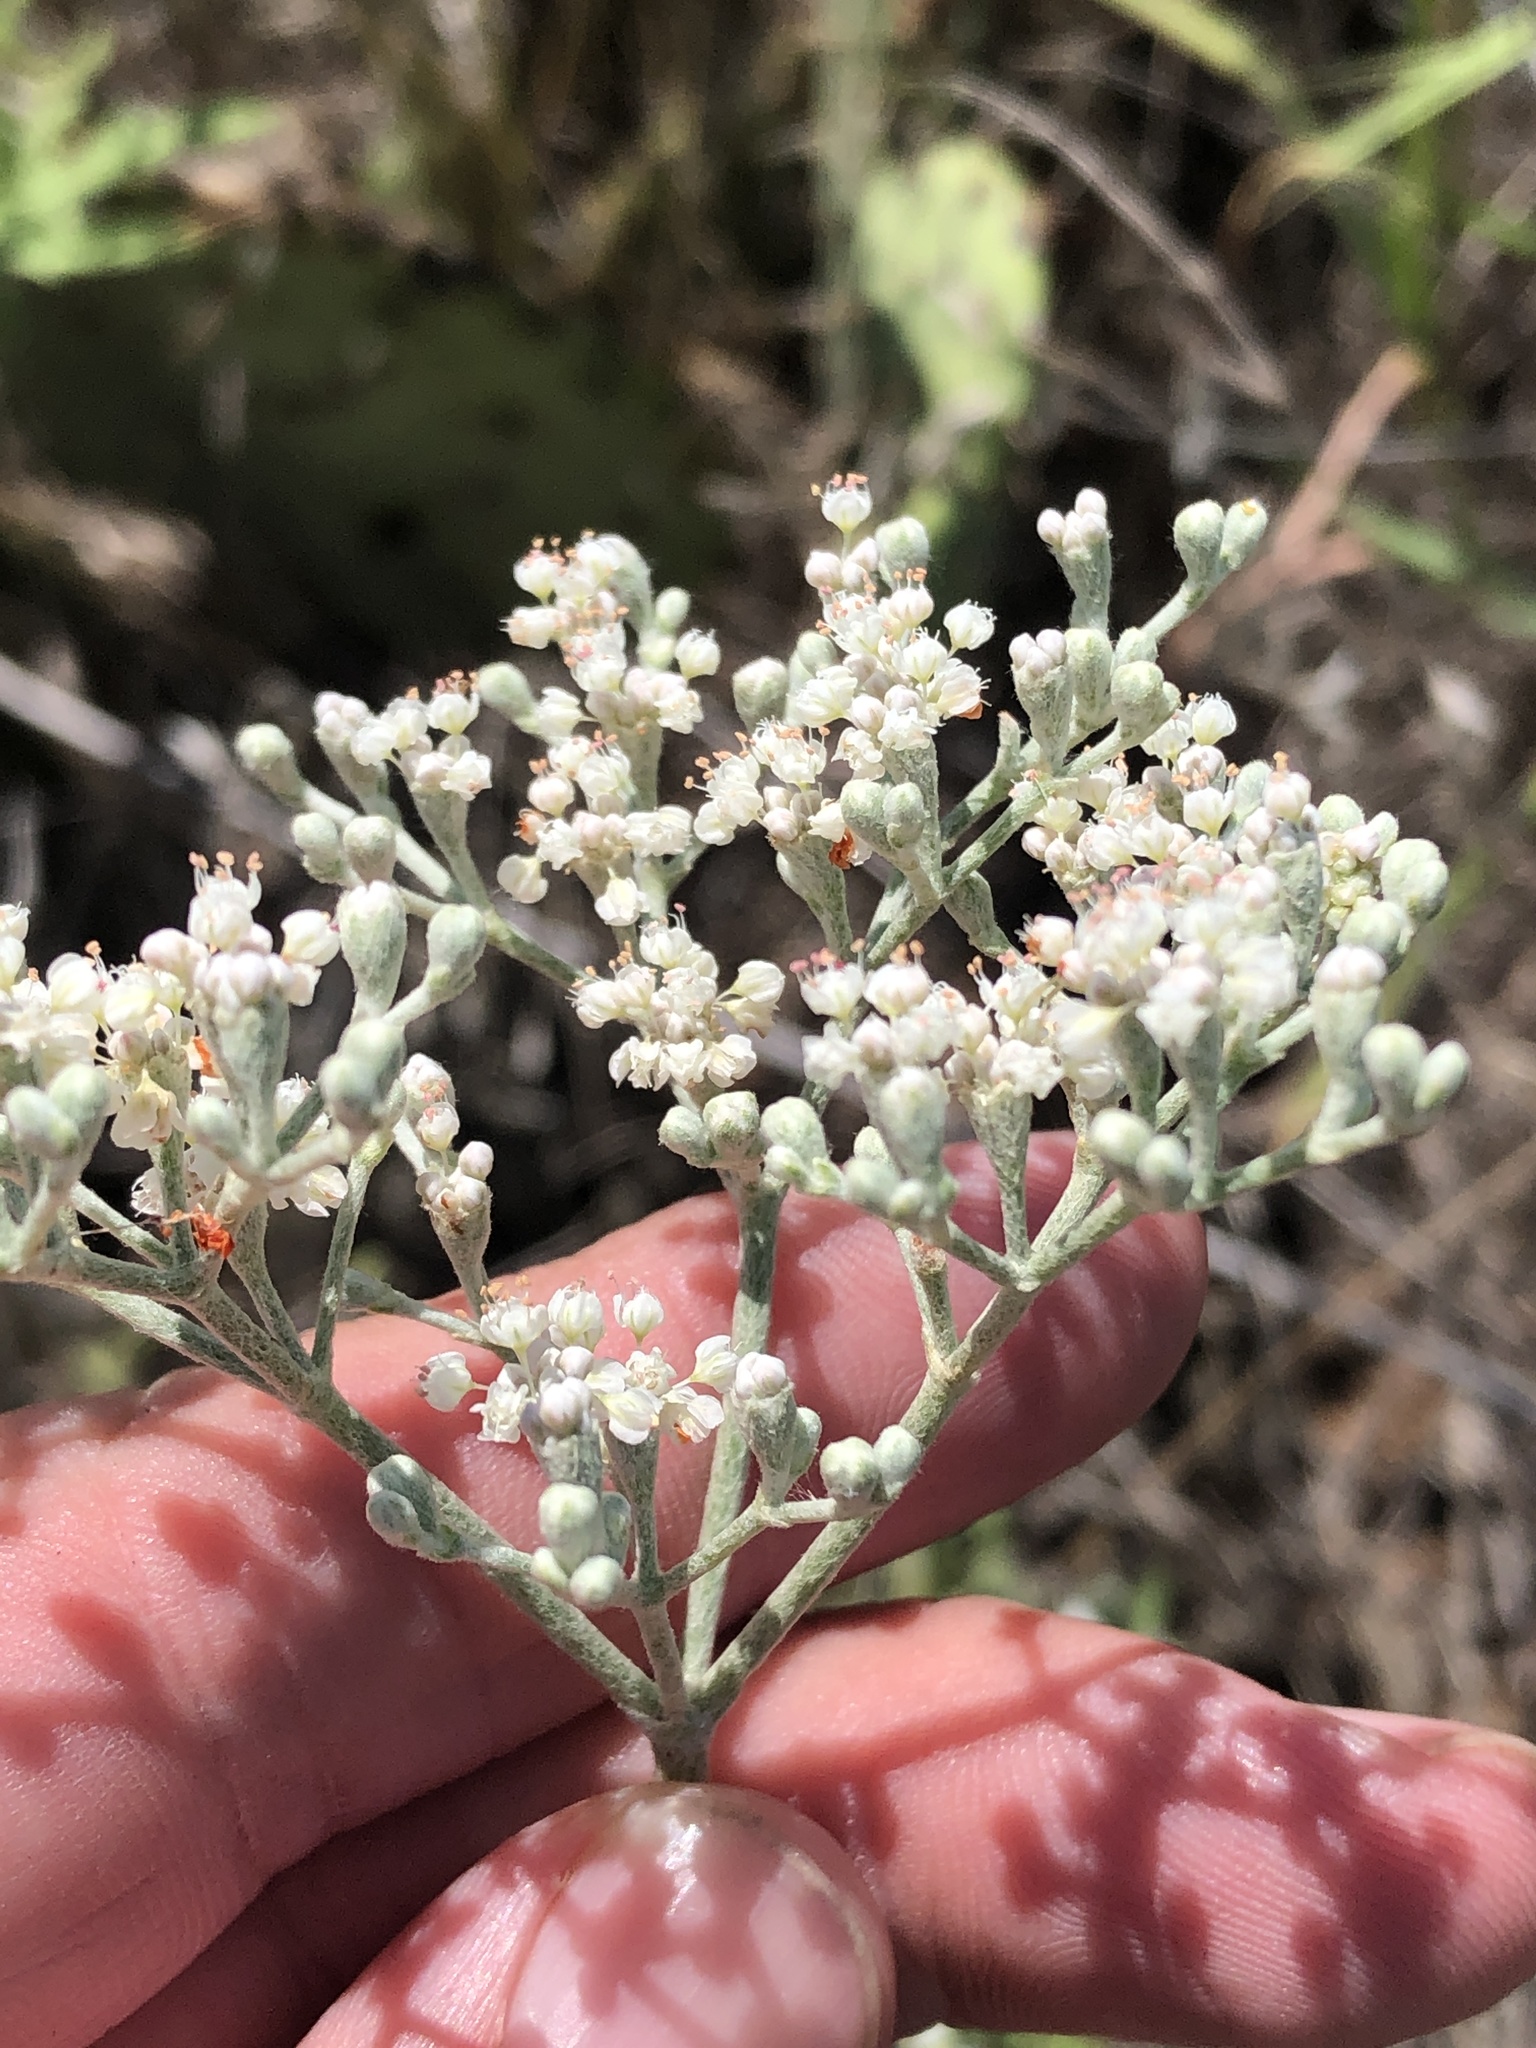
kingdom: Plantae
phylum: Tracheophyta
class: Magnoliopsida
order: Caryophyllales
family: Polygonaceae
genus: Eriogonum
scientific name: Eriogonum annuum
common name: Annual wild buckwheat
